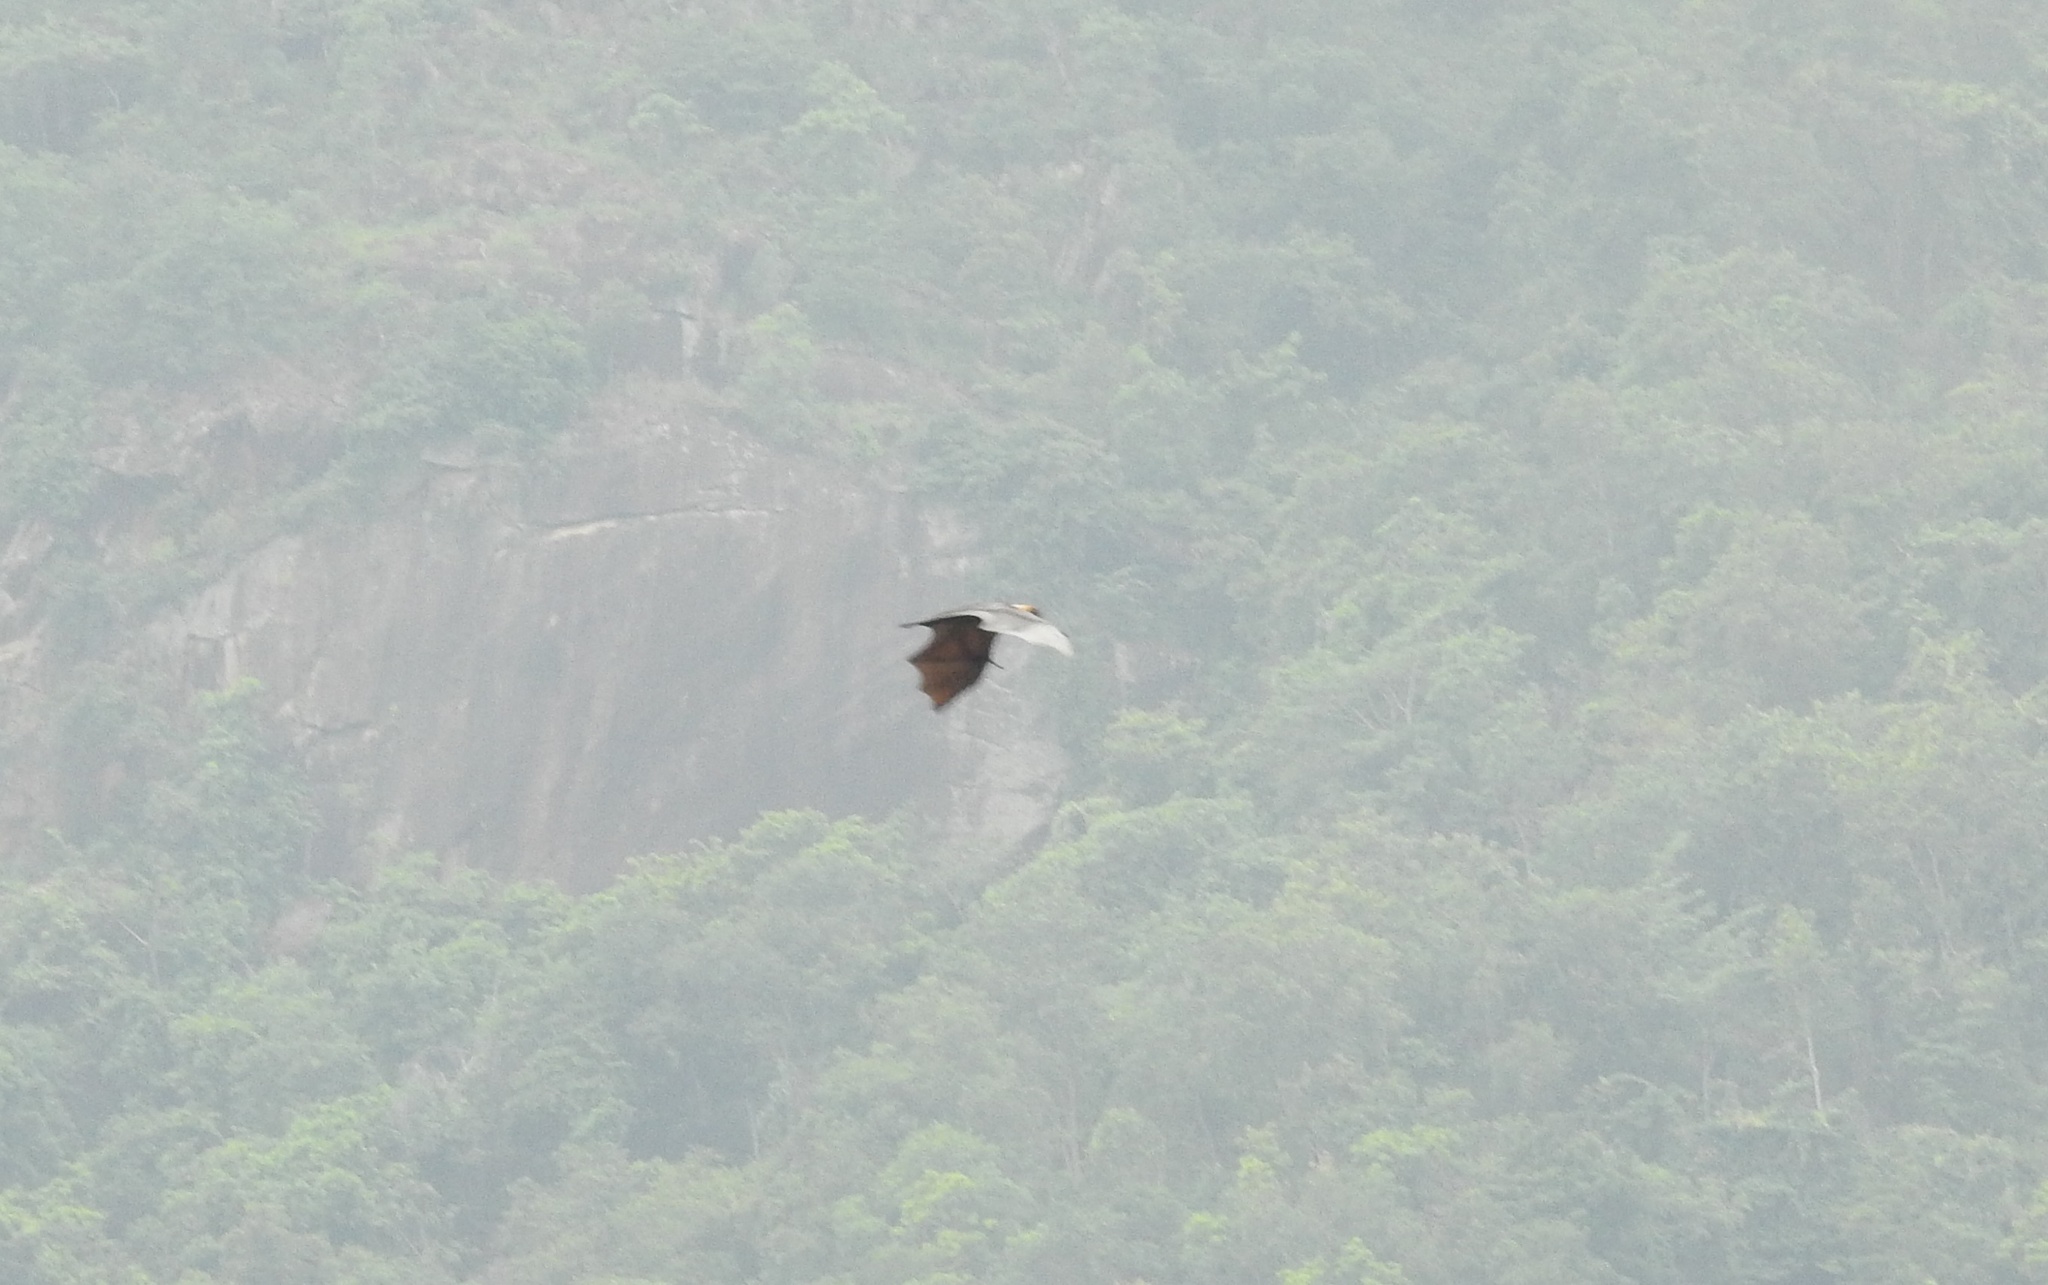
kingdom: Animalia
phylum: Chordata
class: Mammalia
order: Chiroptera
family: Pteropodidae
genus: Pteropus
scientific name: Pteropus vampyrus
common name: Large flying fox
